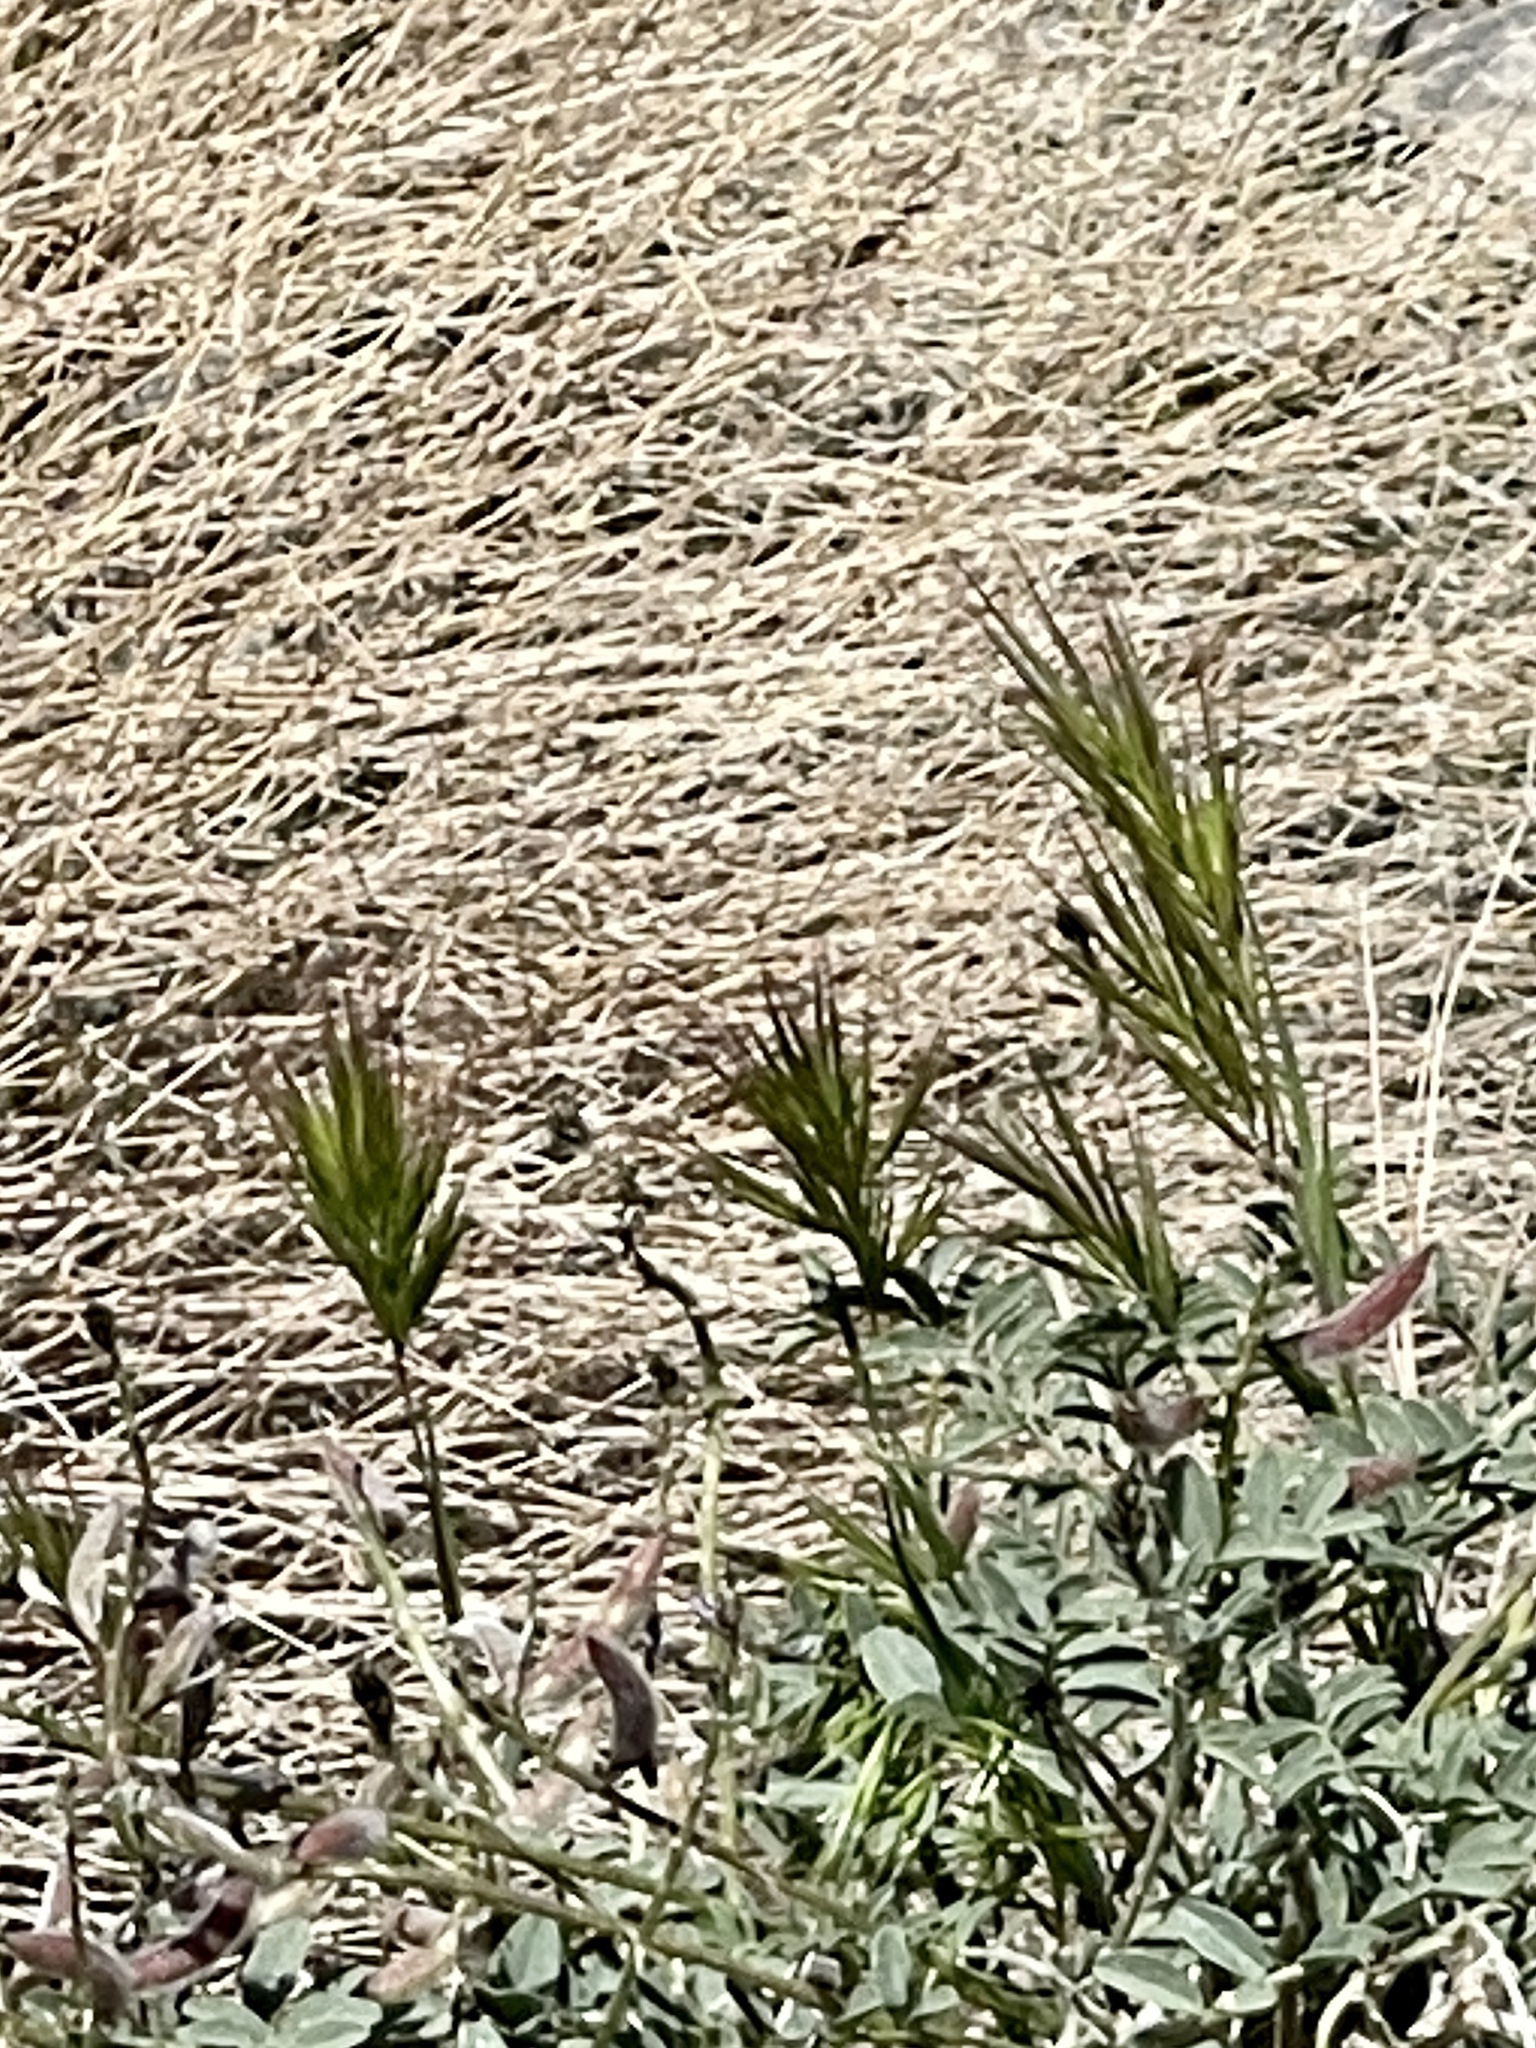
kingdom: Plantae
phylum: Tracheophyta
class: Liliopsida
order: Poales
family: Poaceae
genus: Bromus
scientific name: Bromus rubens
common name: Red brome
